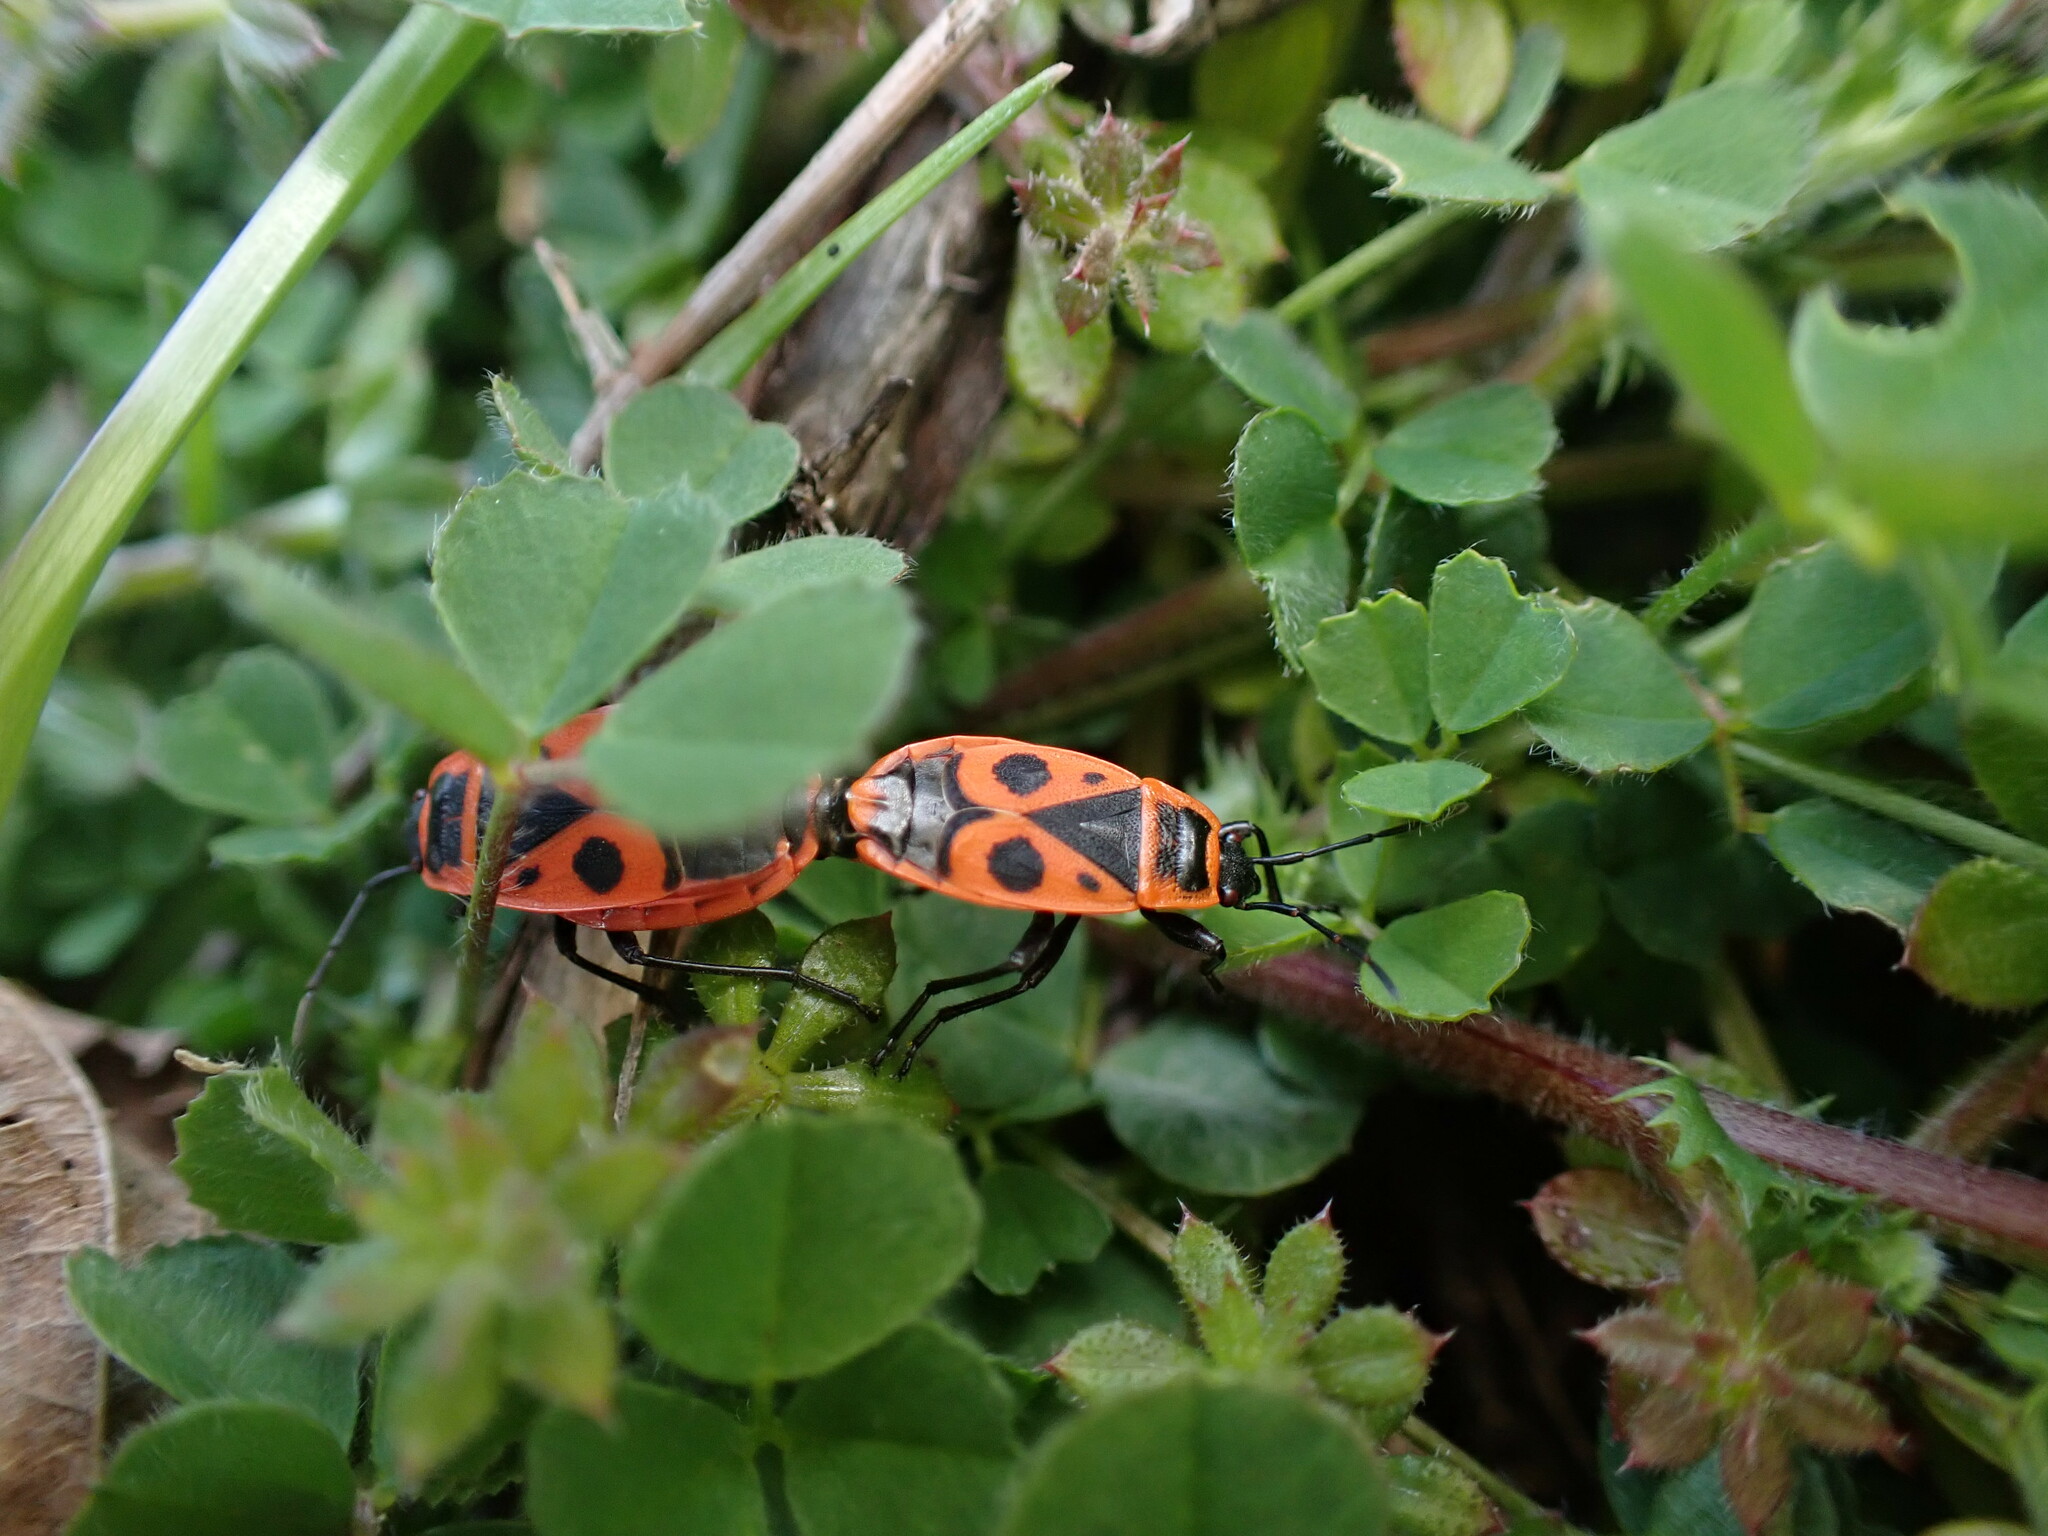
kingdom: Animalia
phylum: Arthropoda
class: Insecta
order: Hemiptera
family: Pyrrhocoridae
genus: Pyrrhocoris
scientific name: Pyrrhocoris apterus
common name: Firebug
